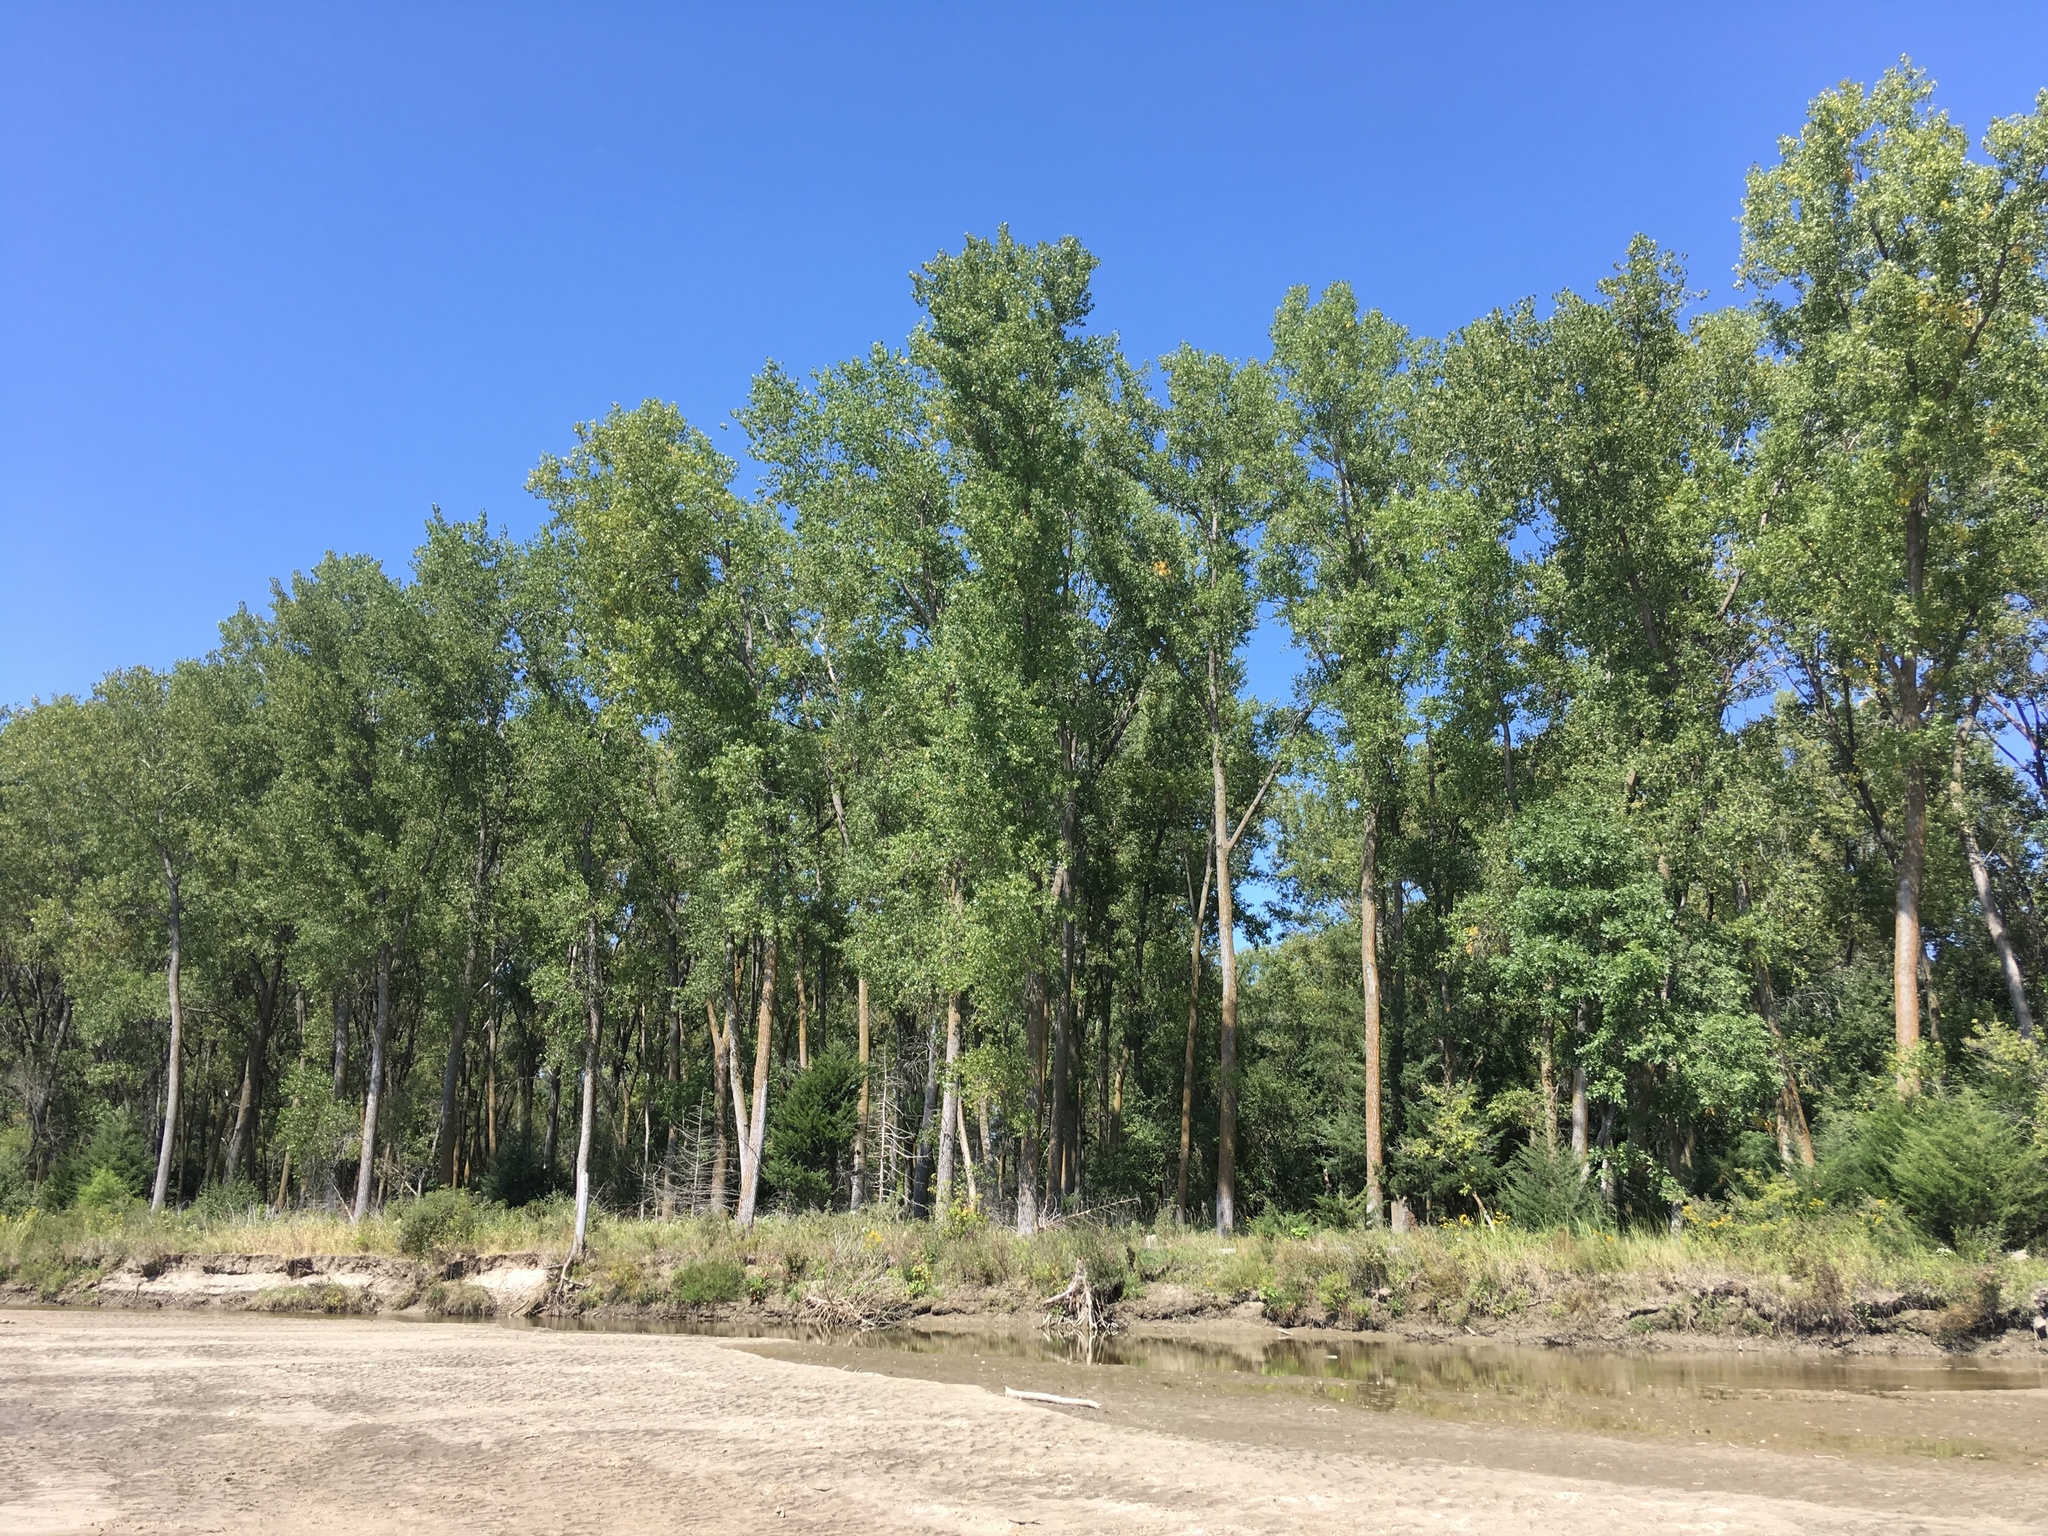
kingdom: Plantae
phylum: Tracheophyta
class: Magnoliopsida
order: Malpighiales
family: Salicaceae
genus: Populus
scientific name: Populus deltoides
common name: Eastern cottonwood
